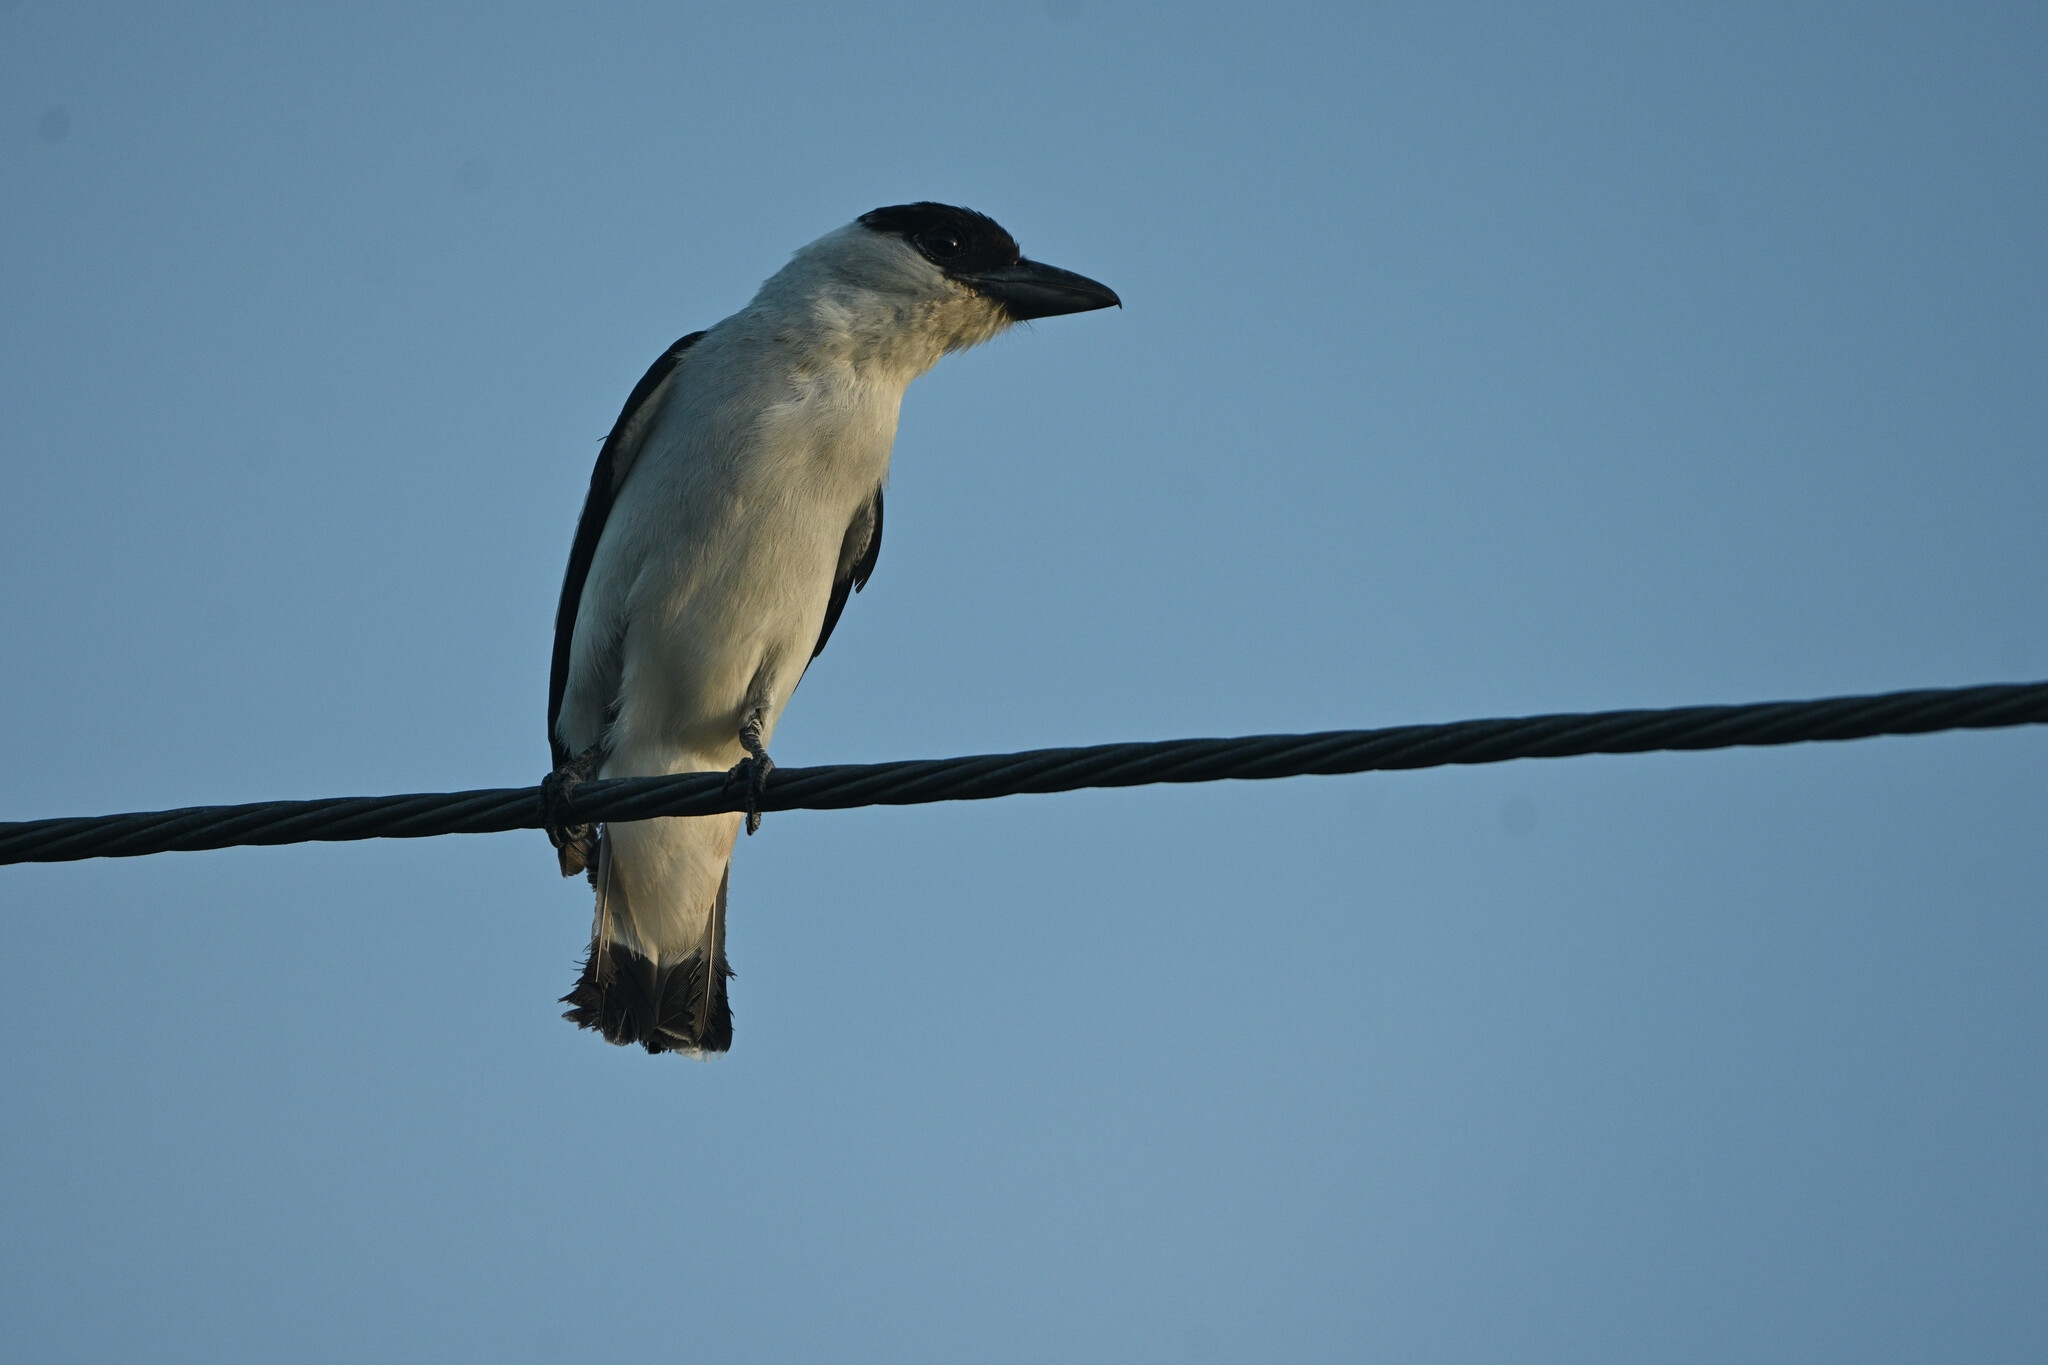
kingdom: Animalia
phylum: Chordata
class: Aves
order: Passeriformes
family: Cotingidae
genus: Tityra
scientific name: Tityra inquisitor
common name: Black-crowned tityra
